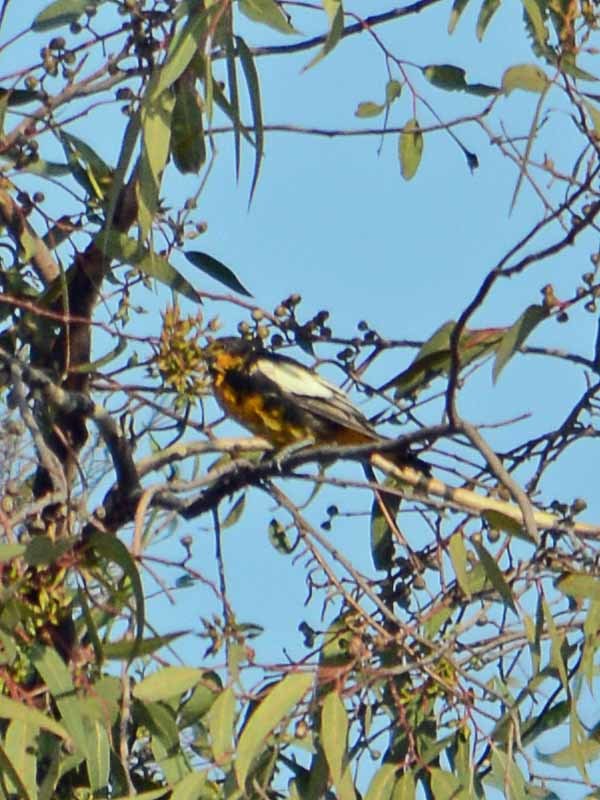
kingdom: Animalia
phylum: Chordata
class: Aves
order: Passeriformes
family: Icteridae
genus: Icterus
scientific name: Icterus abeillei
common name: Black-backed oriole
